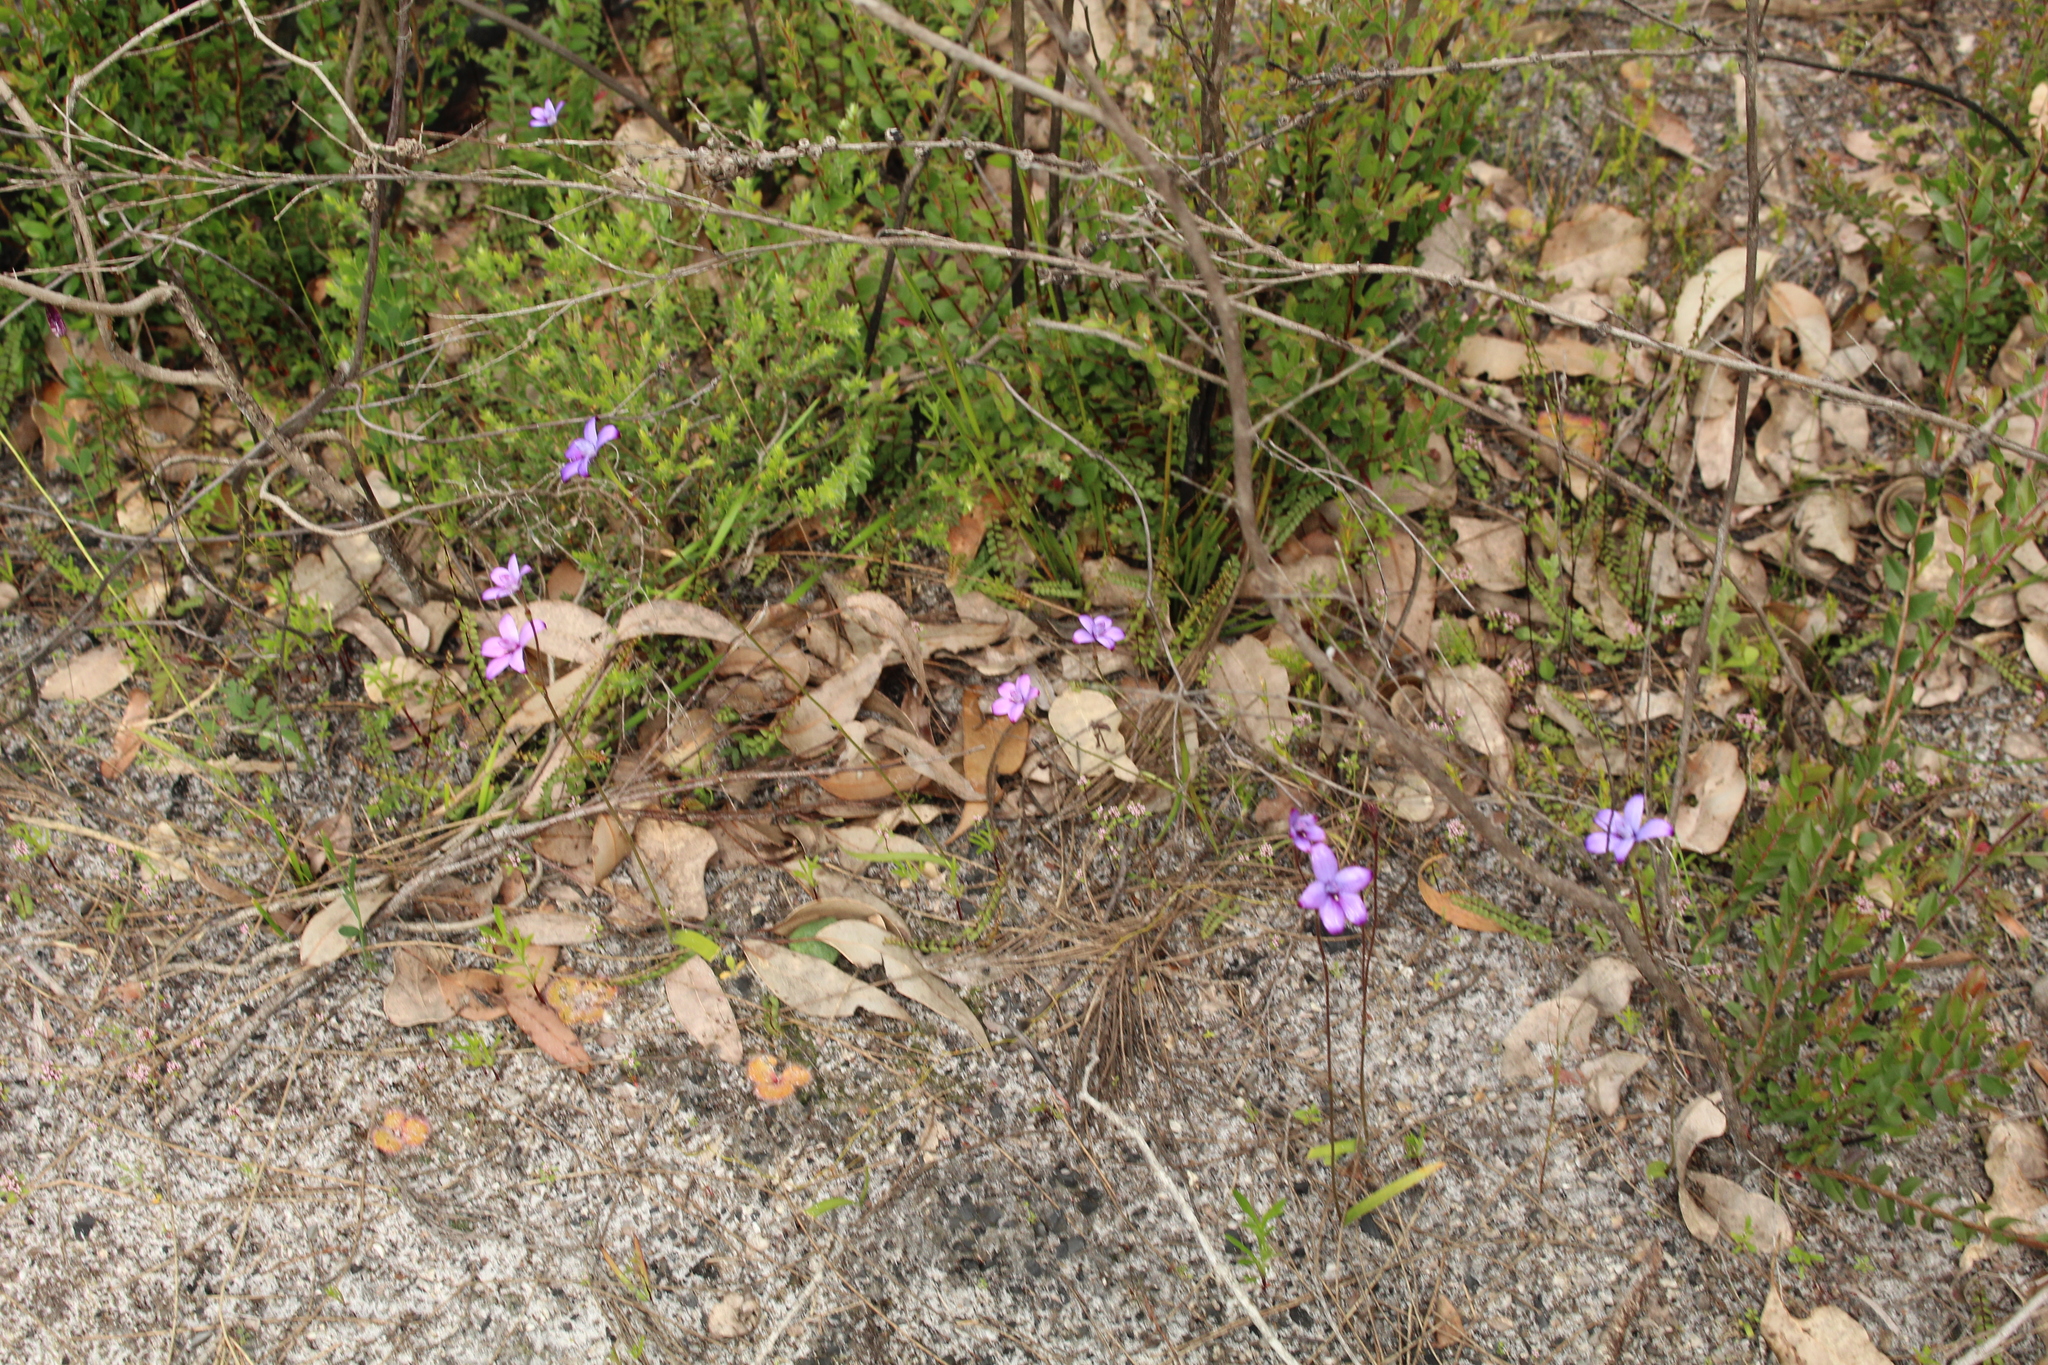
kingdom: Plantae
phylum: Tracheophyta
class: Liliopsida
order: Asparagales
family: Orchidaceae
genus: Caladenia
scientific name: Caladenia brunonis
